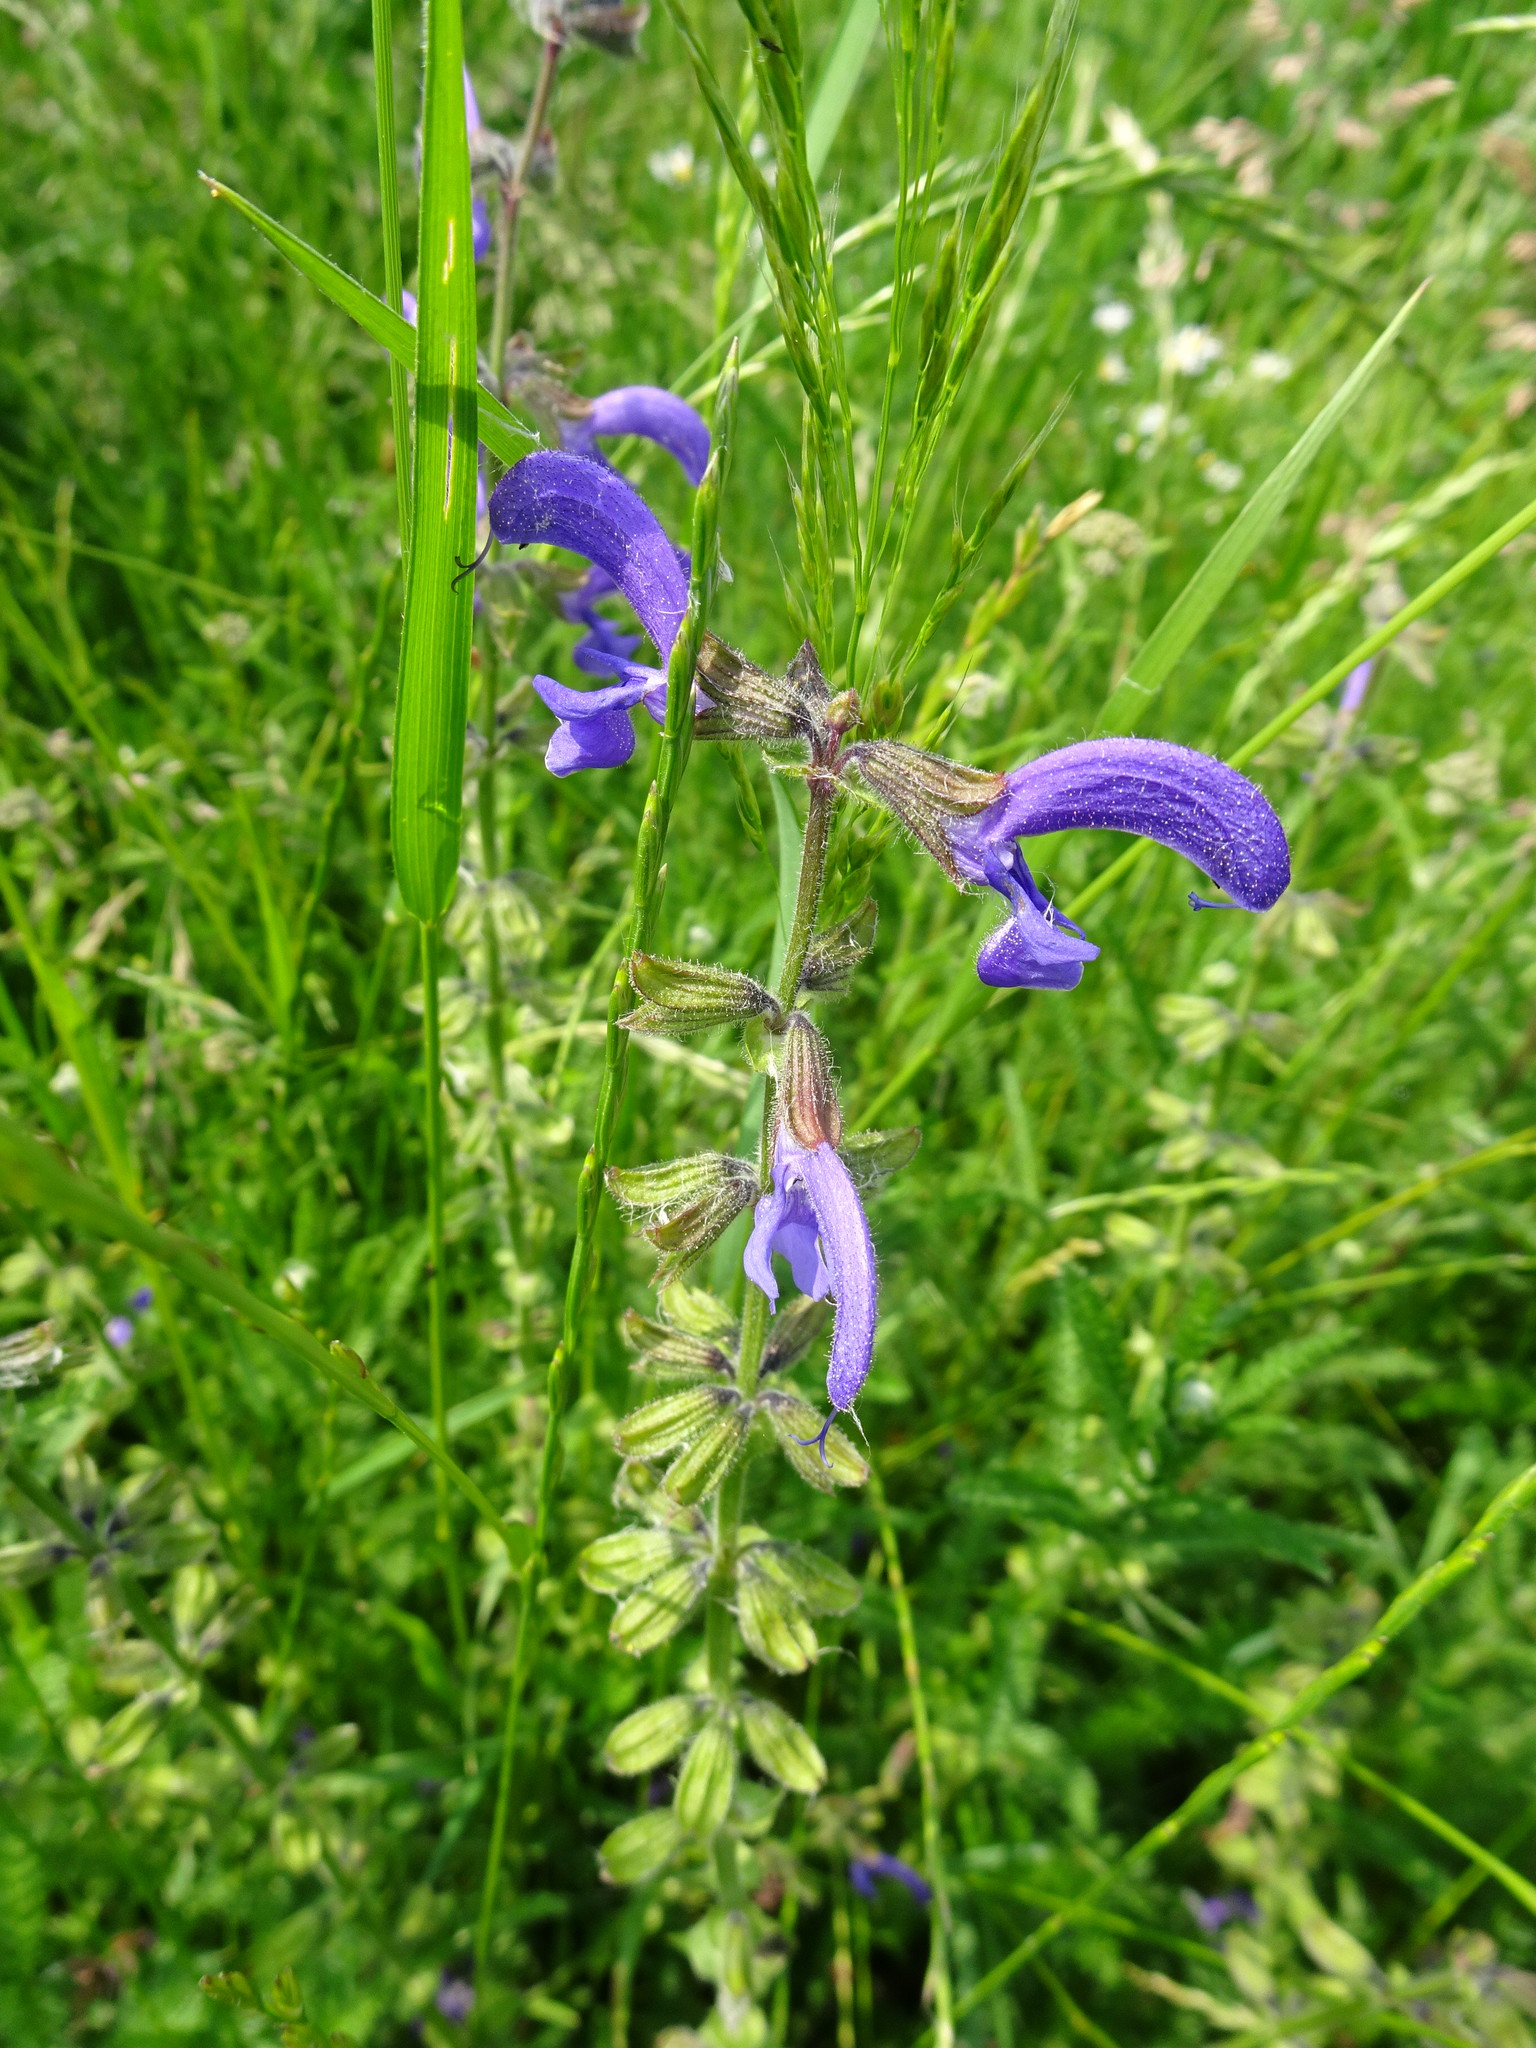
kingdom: Plantae
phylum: Tracheophyta
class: Magnoliopsida
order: Lamiales
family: Lamiaceae
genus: Salvia
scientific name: Salvia pratensis
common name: Meadow sage
